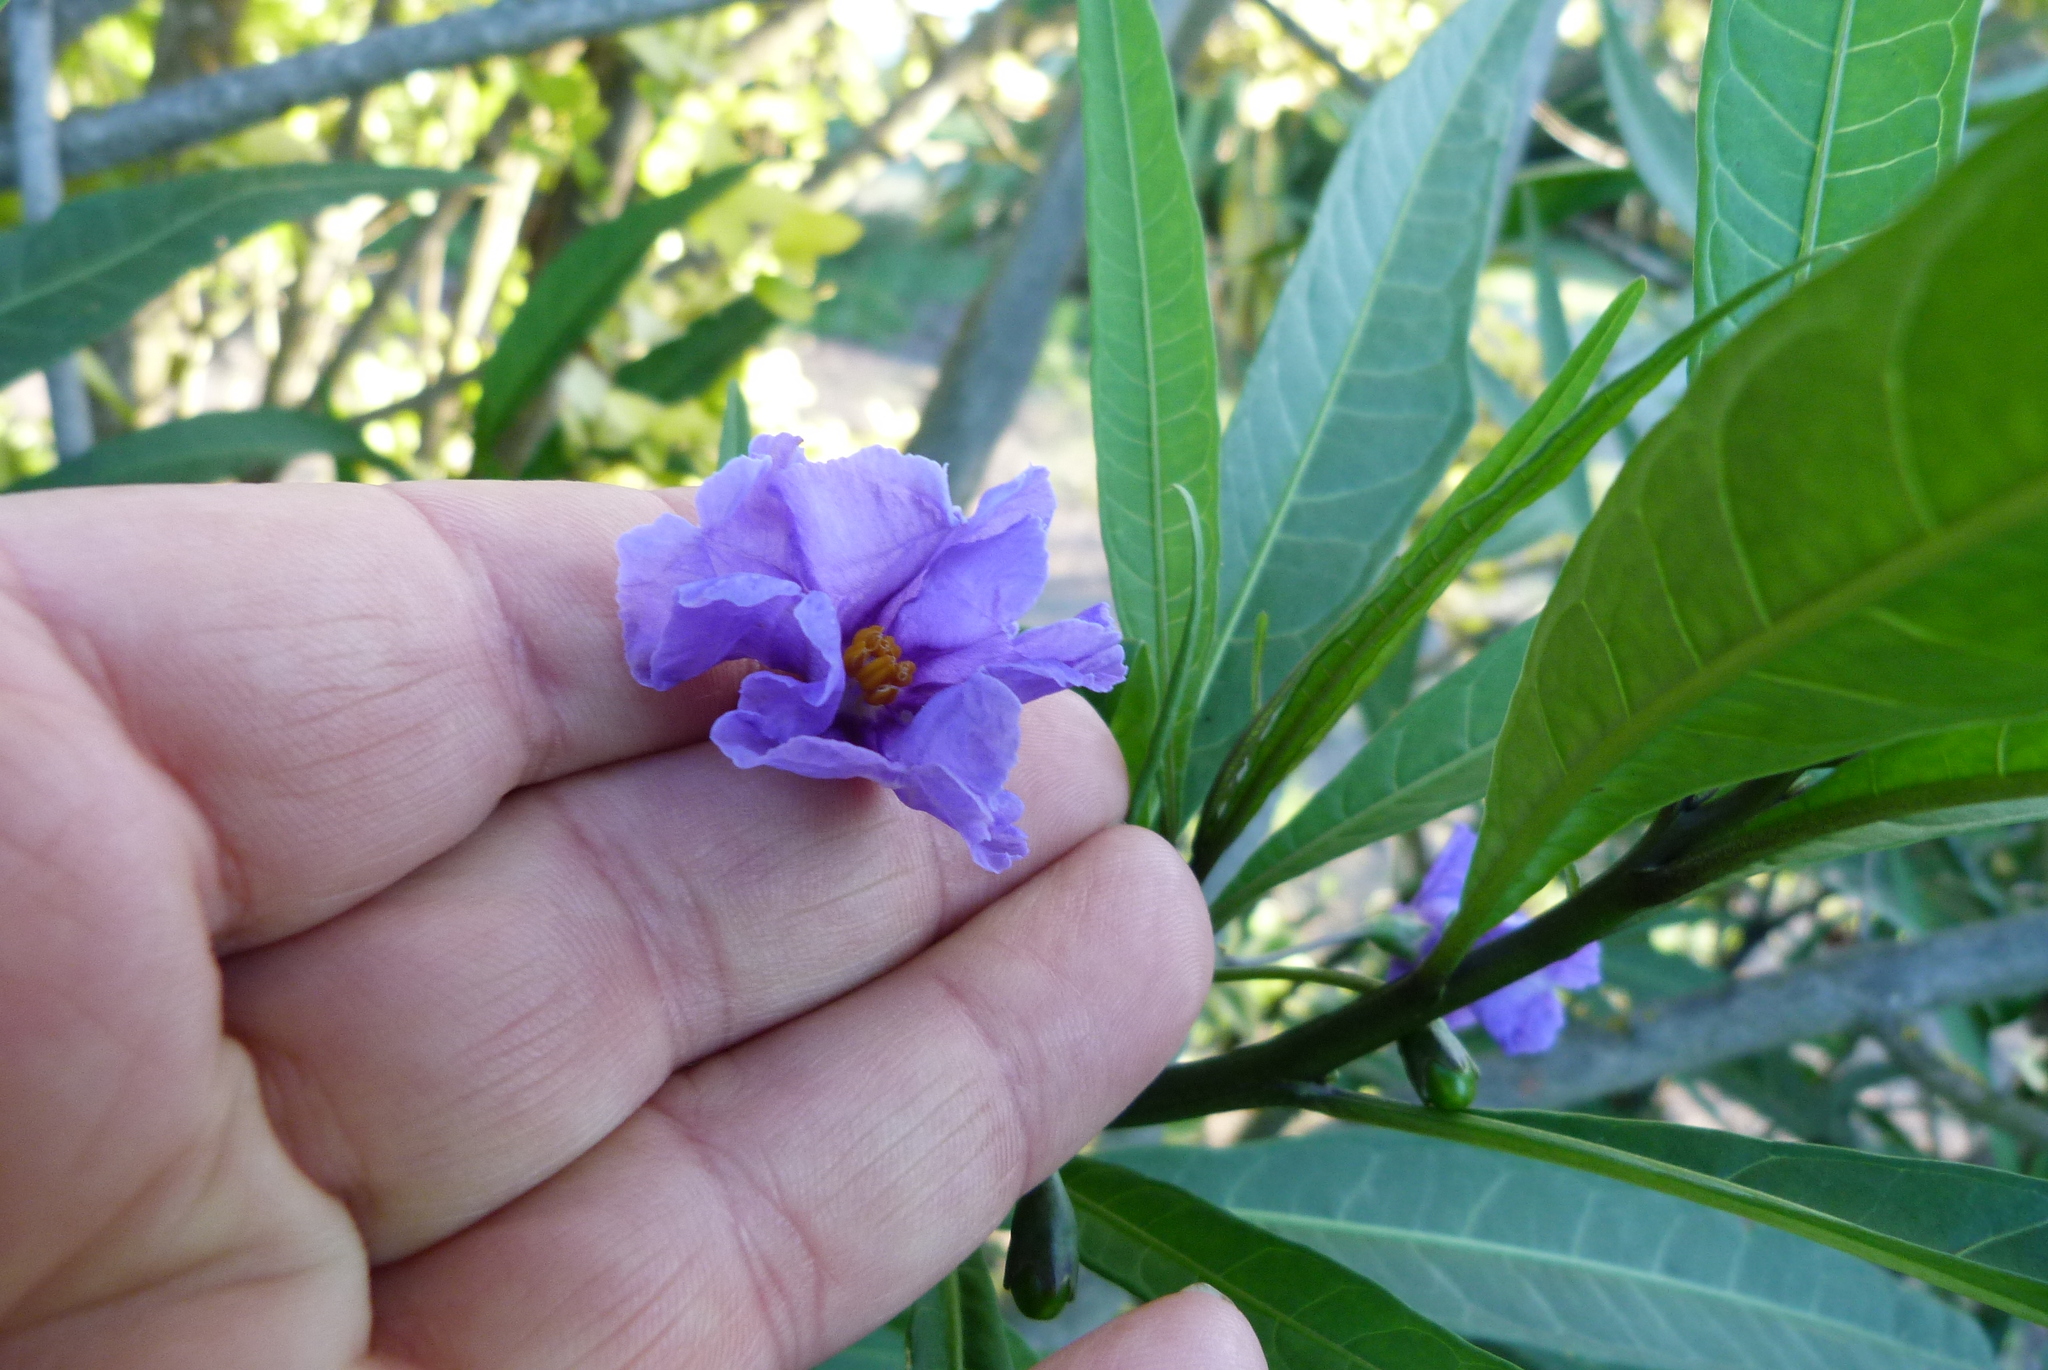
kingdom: Plantae
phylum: Tracheophyta
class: Magnoliopsida
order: Solanales
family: Solanaceae
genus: Solanum
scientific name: Solanum laciniatum
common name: Kangaroo-apple
